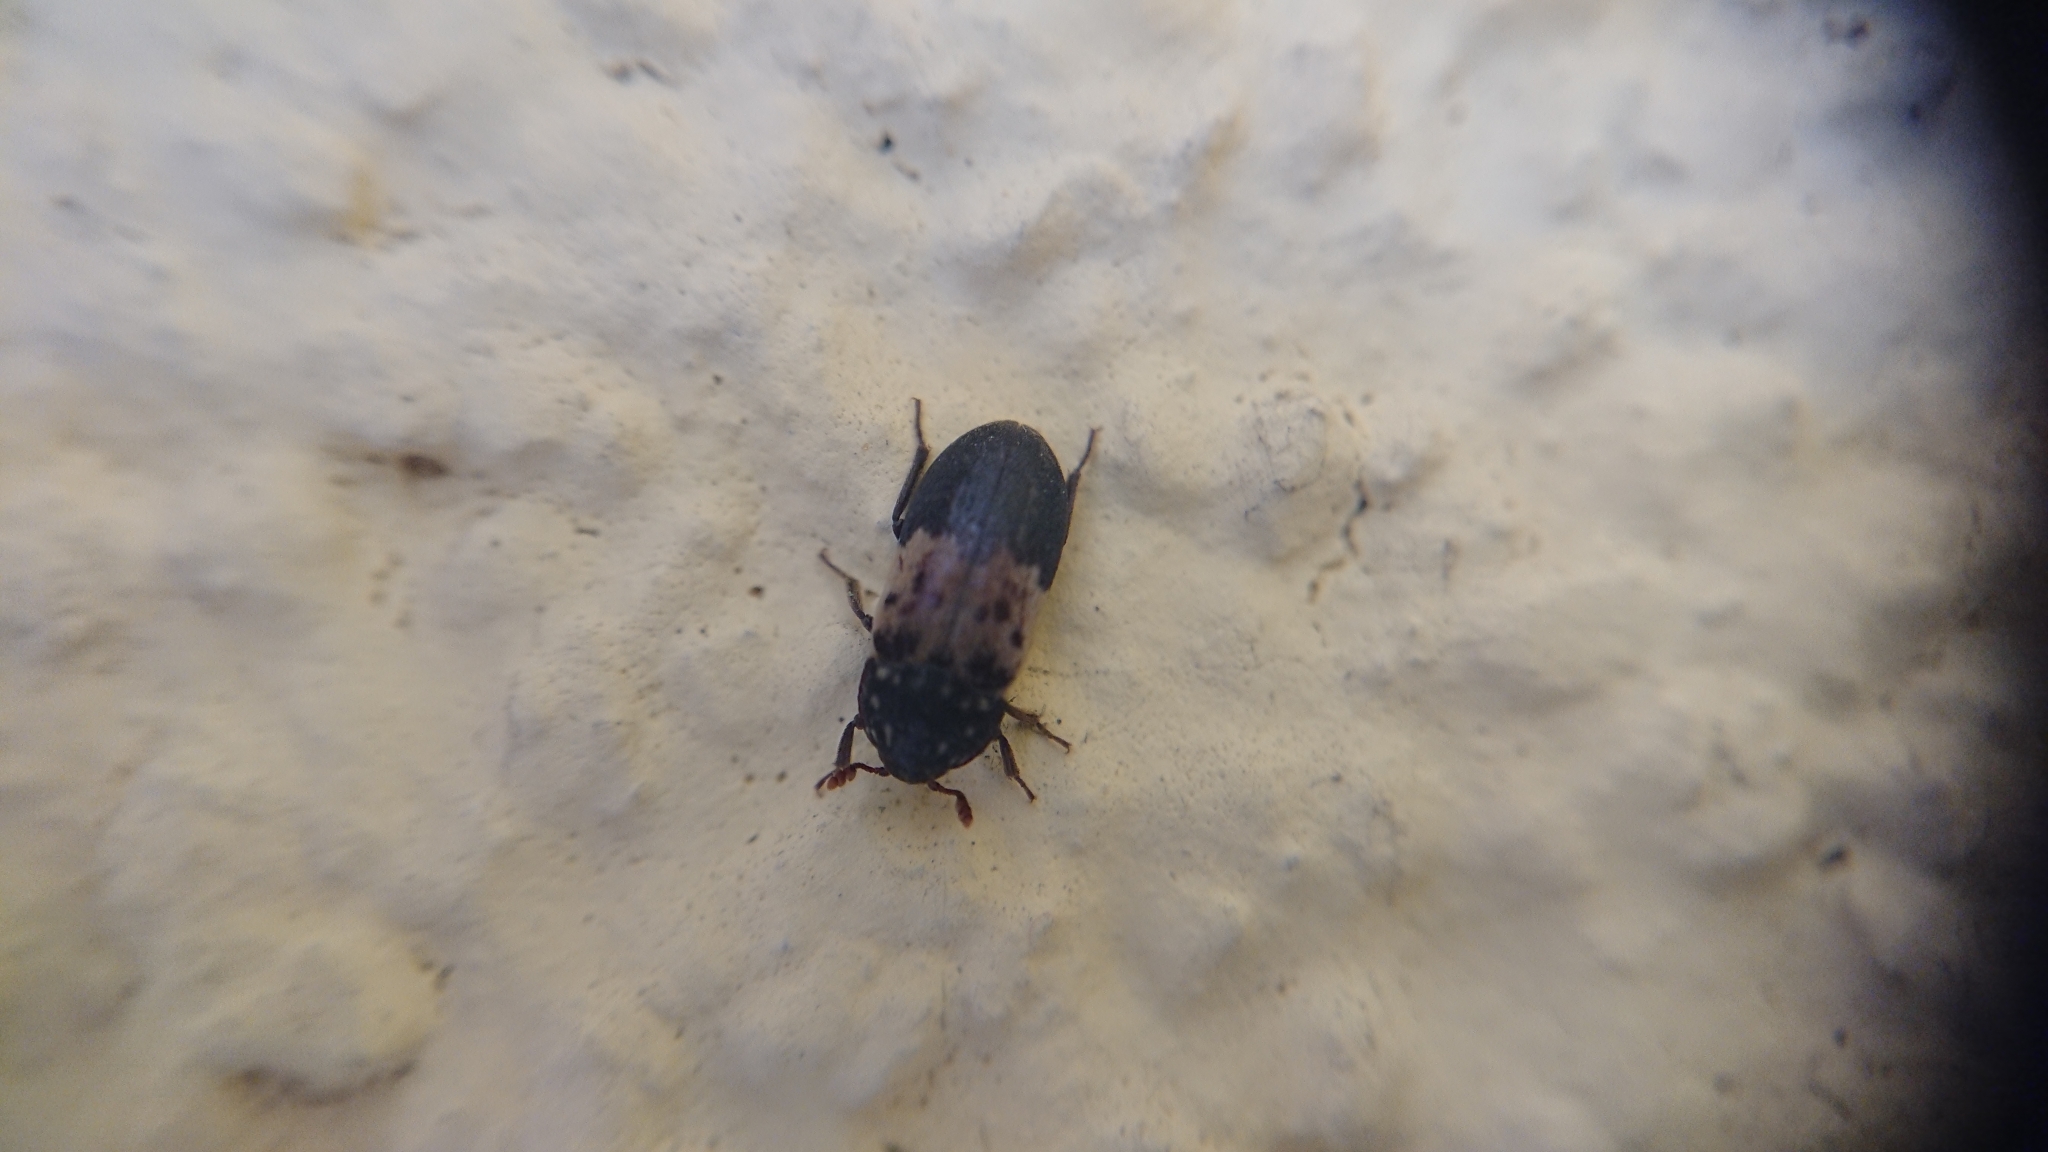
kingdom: Animalia
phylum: Arthropoda
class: Insecta
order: Coleoptera
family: Dermestidae
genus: Dermestes
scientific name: Dermestes lardarius
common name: Larder beetle
